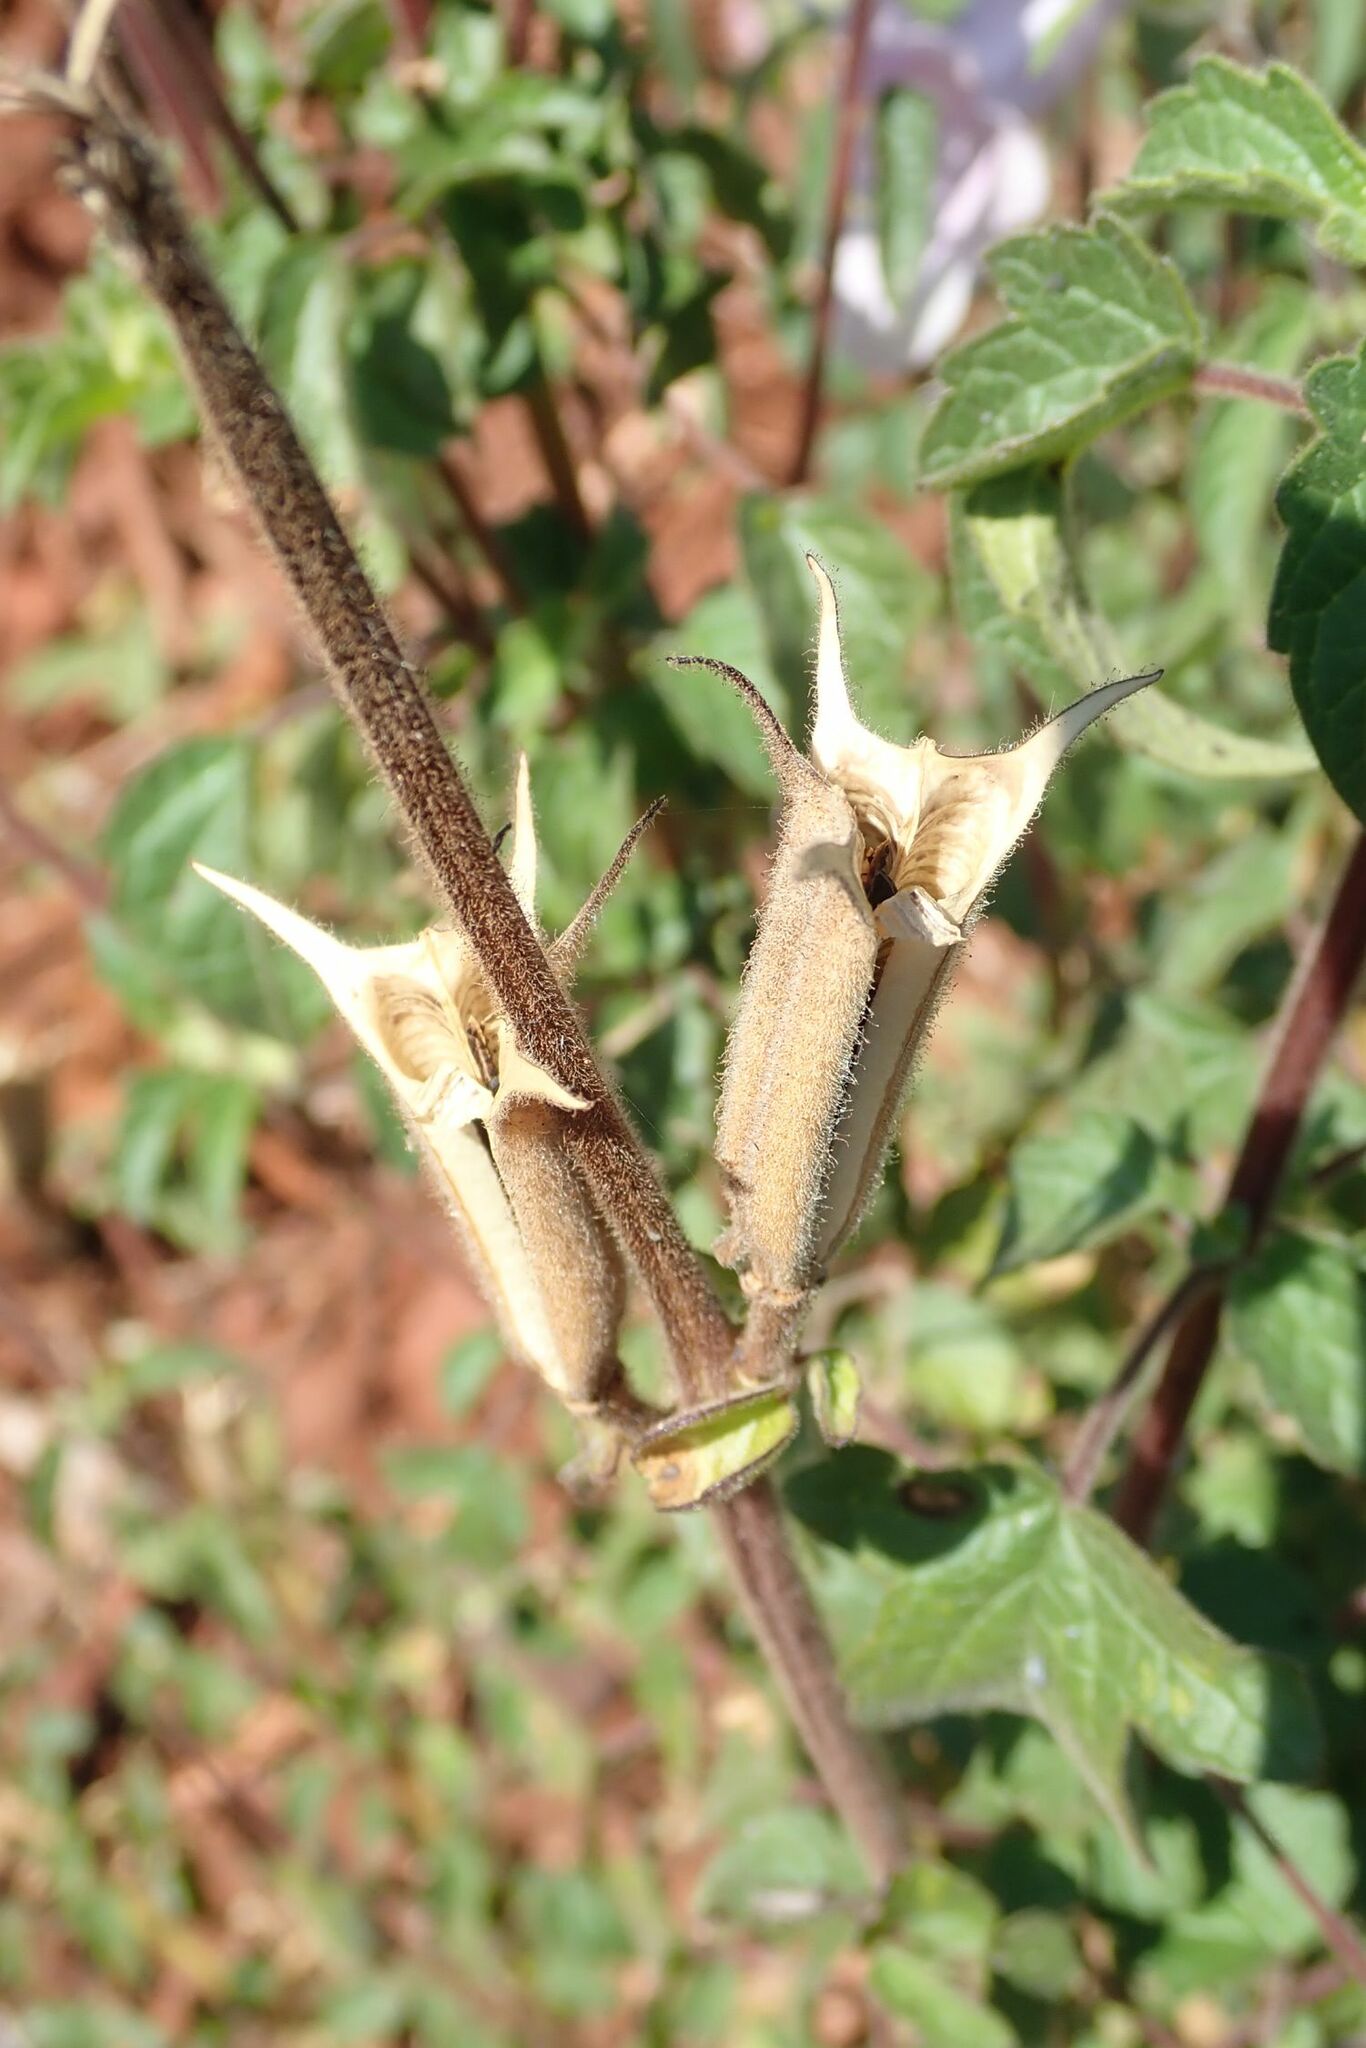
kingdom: Plantae
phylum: Tracheophyta
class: Magnoliopsida
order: Lamiales
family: Pedaliaceae
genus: Sesamum
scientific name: Sesamum trilobum
